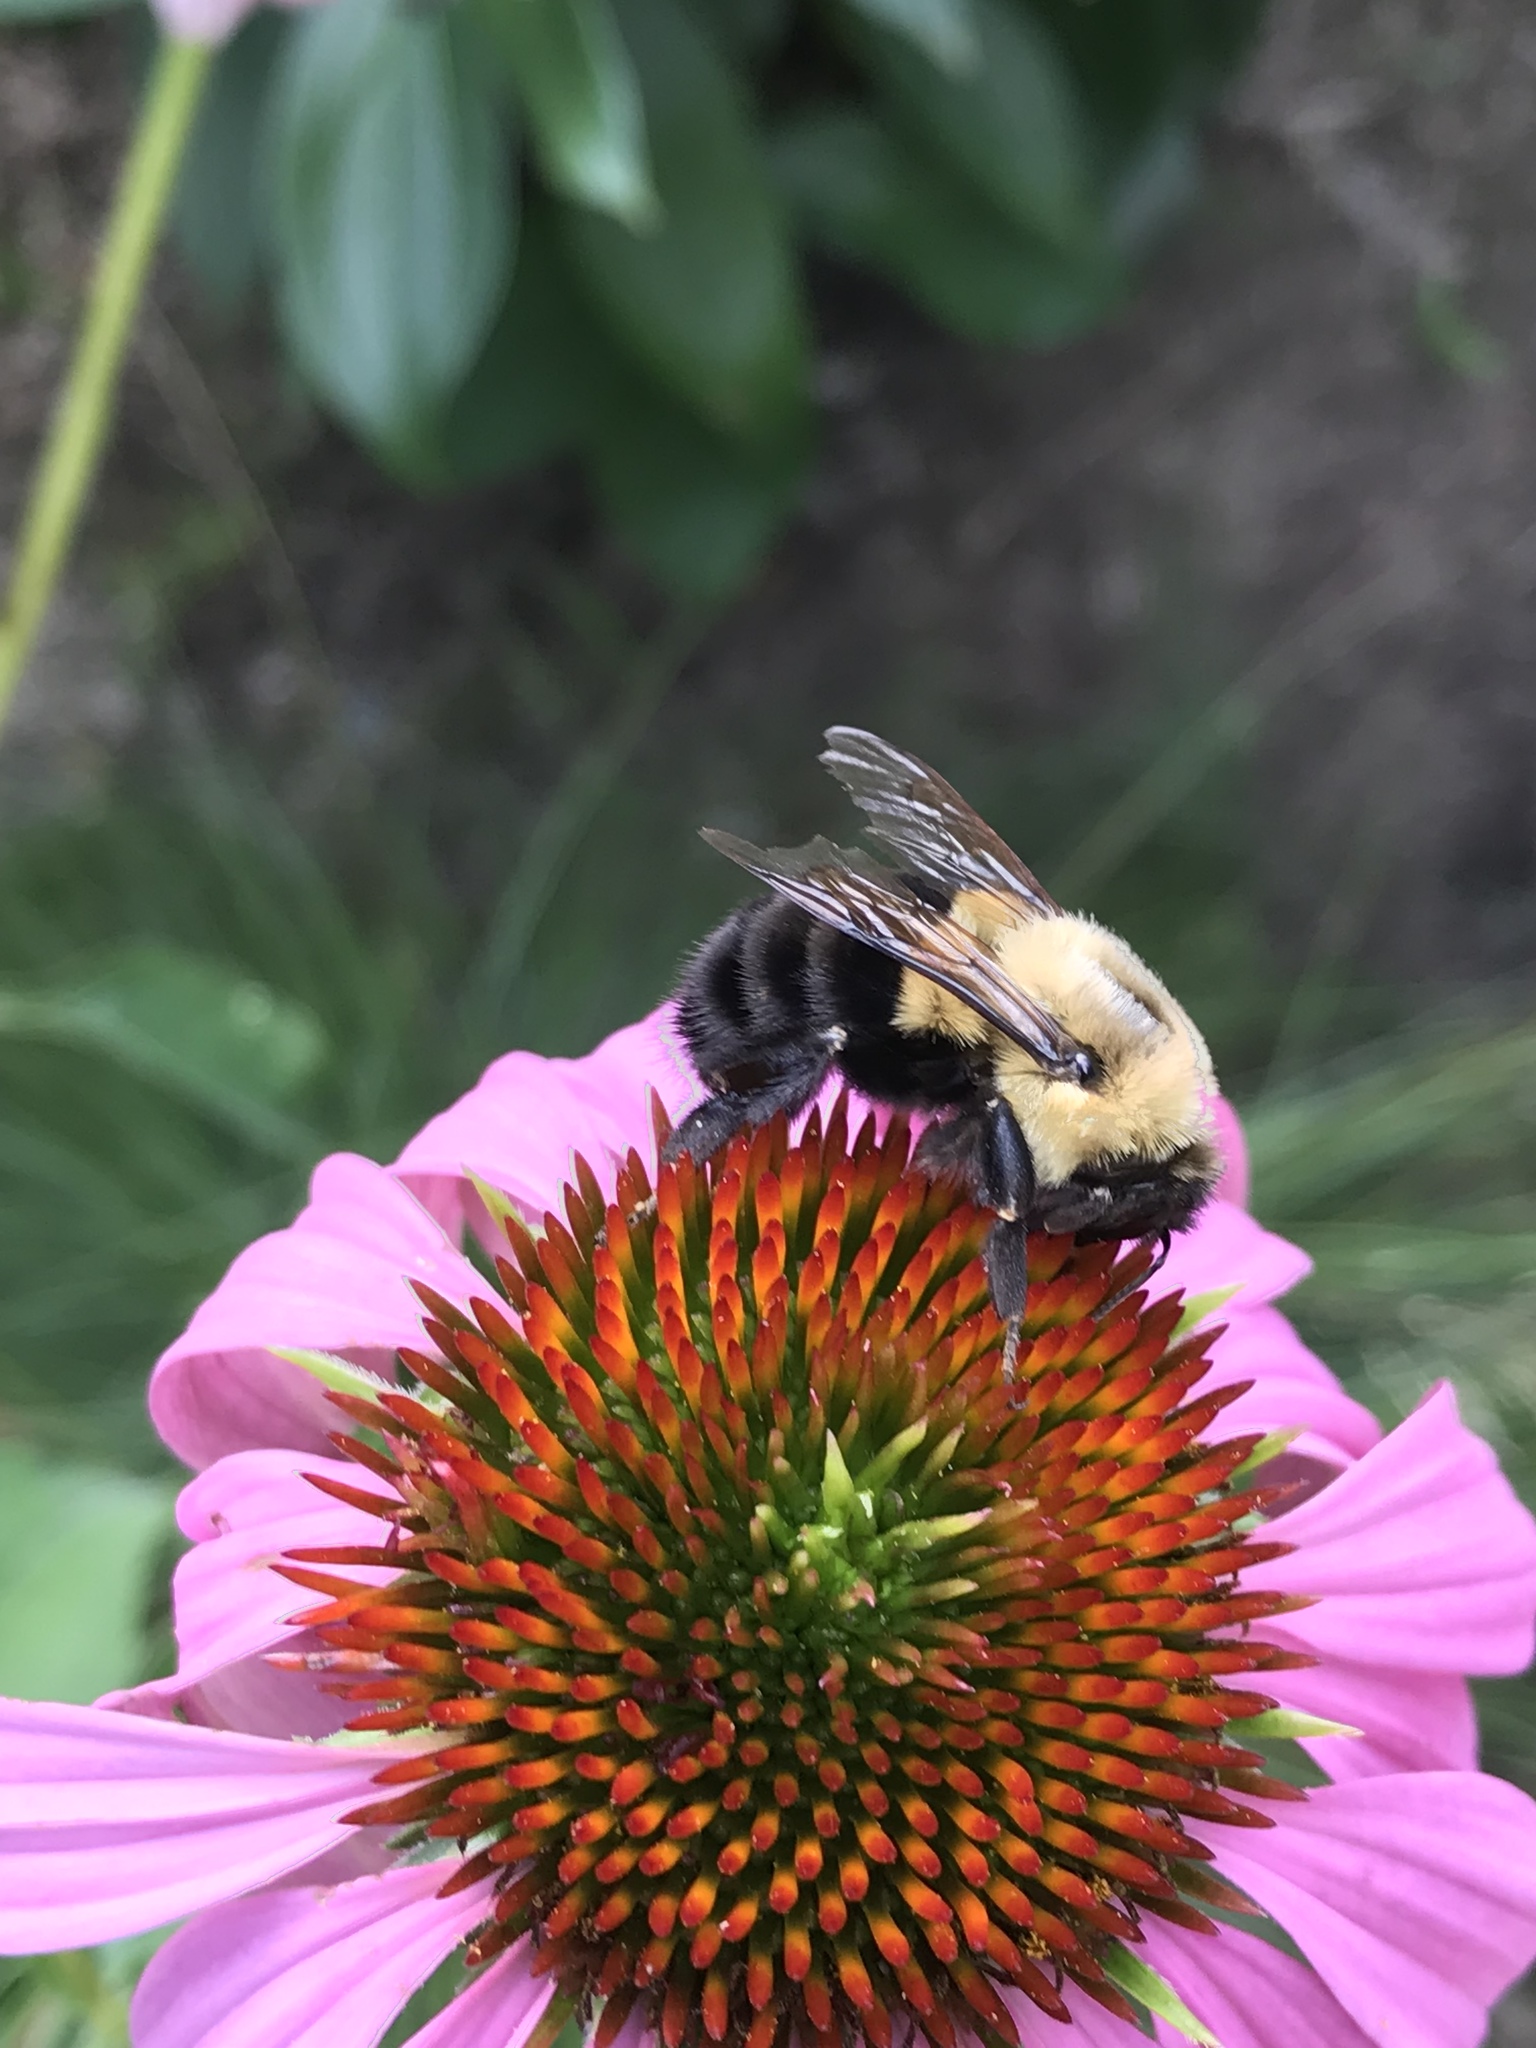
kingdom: Animalia
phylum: Arthropoda
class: Insecta
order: Hymenoptera
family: Apidae
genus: Bombus
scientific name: Bombus impatiens
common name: Common eastern bumble bee
